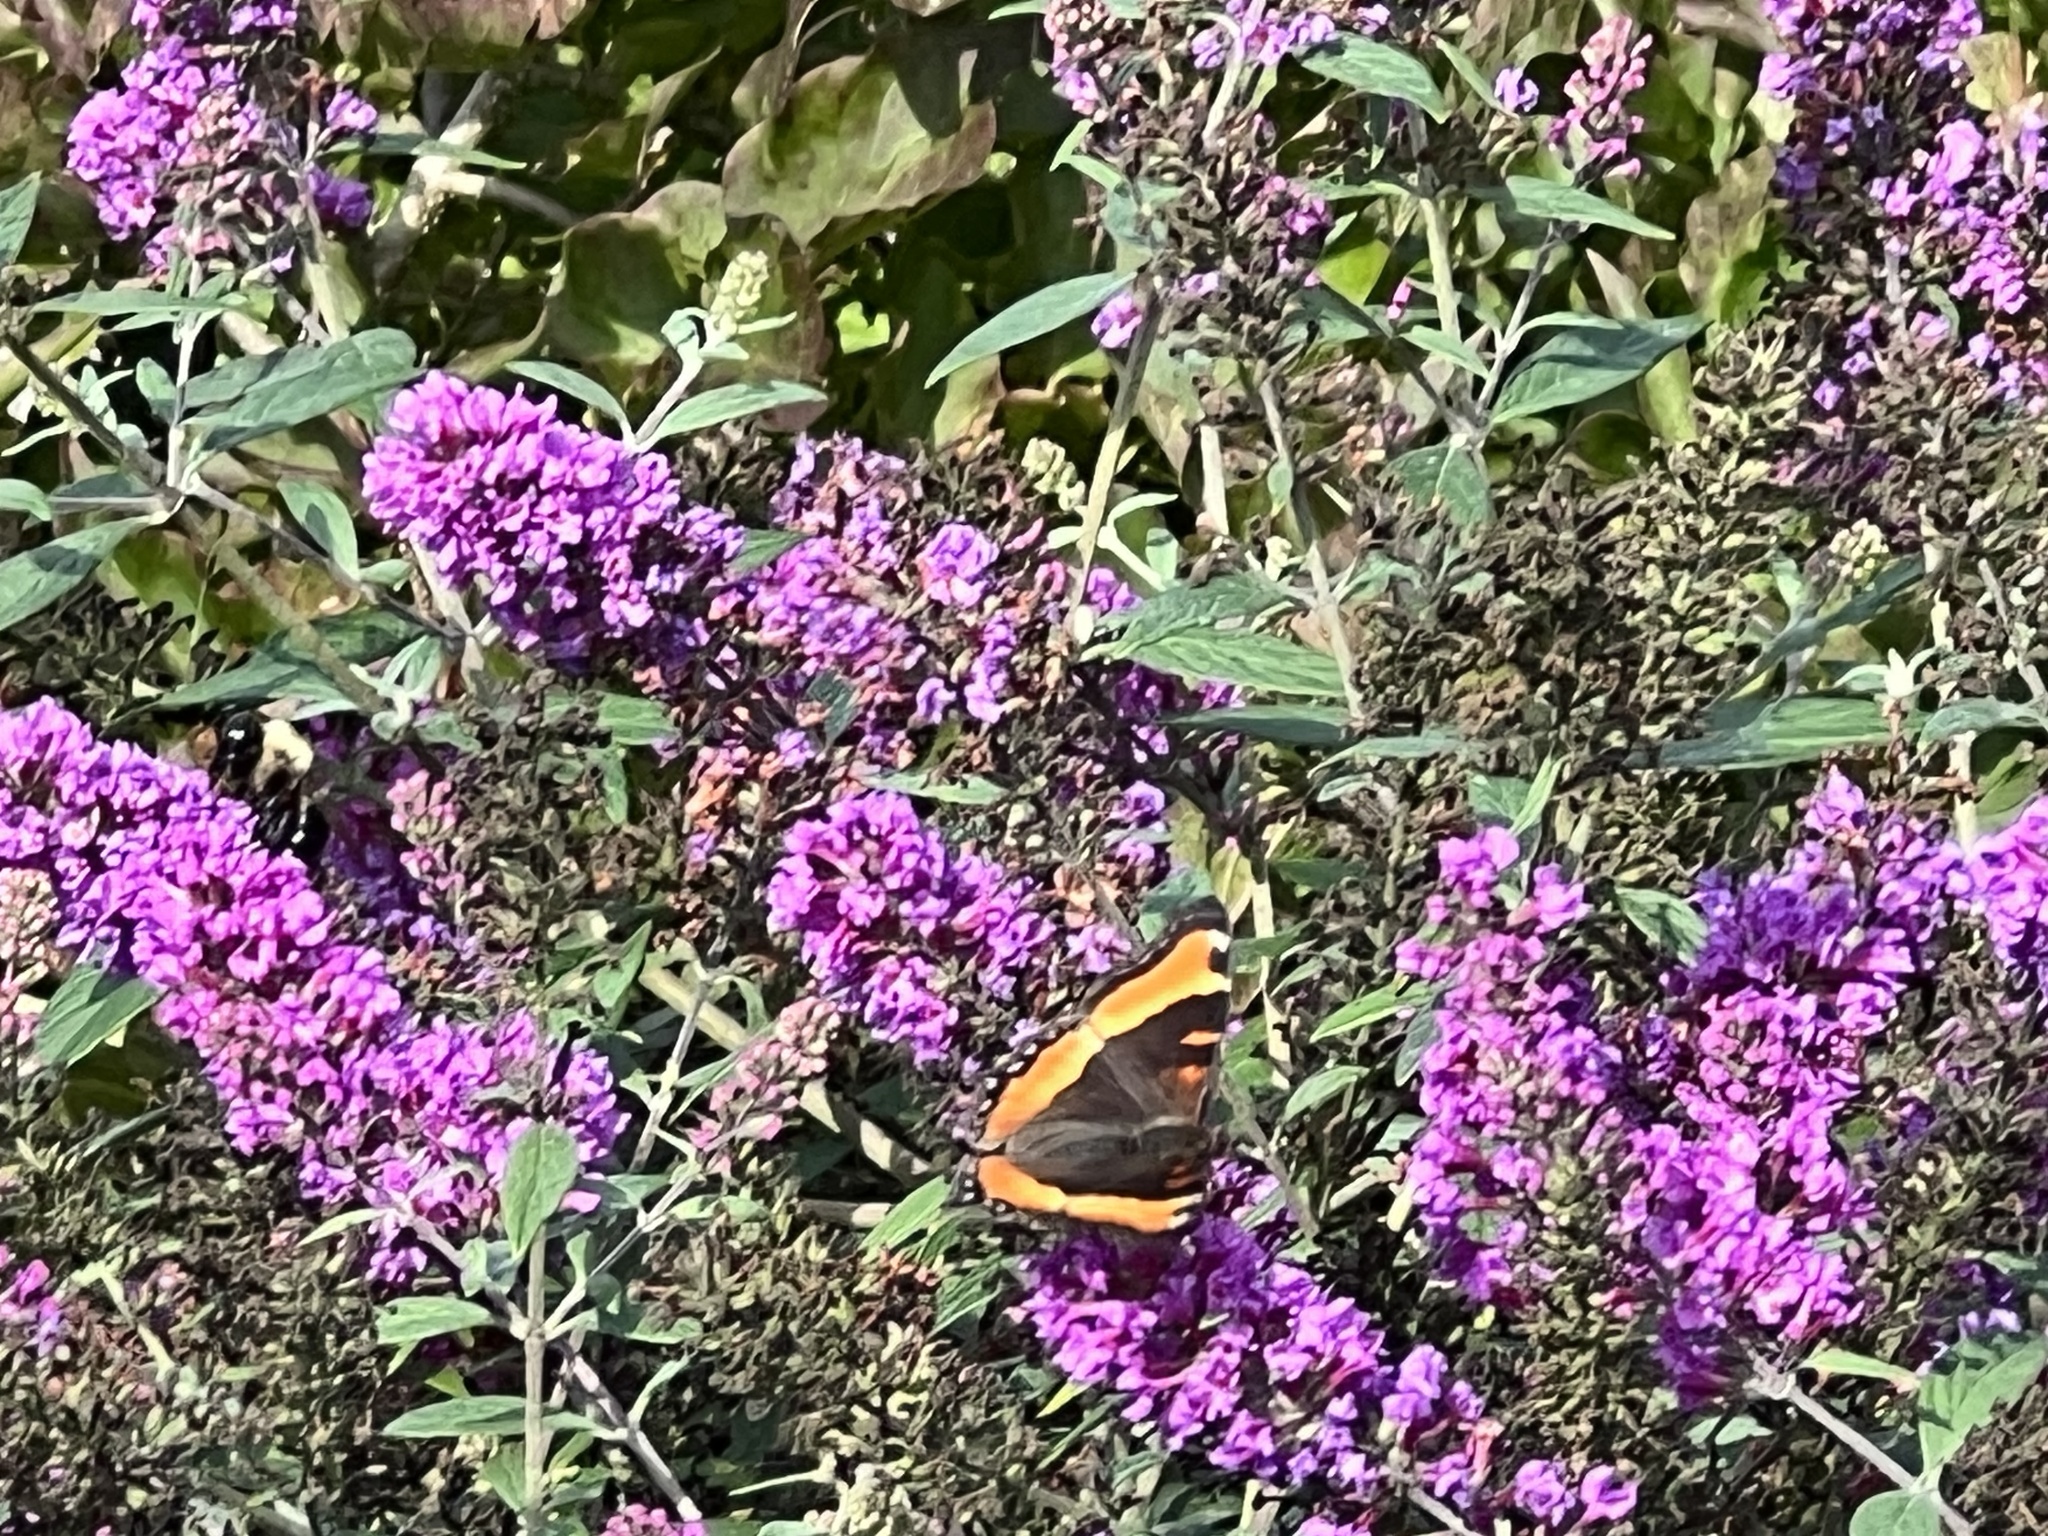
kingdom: Animalia
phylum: Arthropoda
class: Insecta
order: Lepidoptera
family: Nymphalidae
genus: Aglais
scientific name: Aglais milberti
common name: Milbert's tortoiseshell
